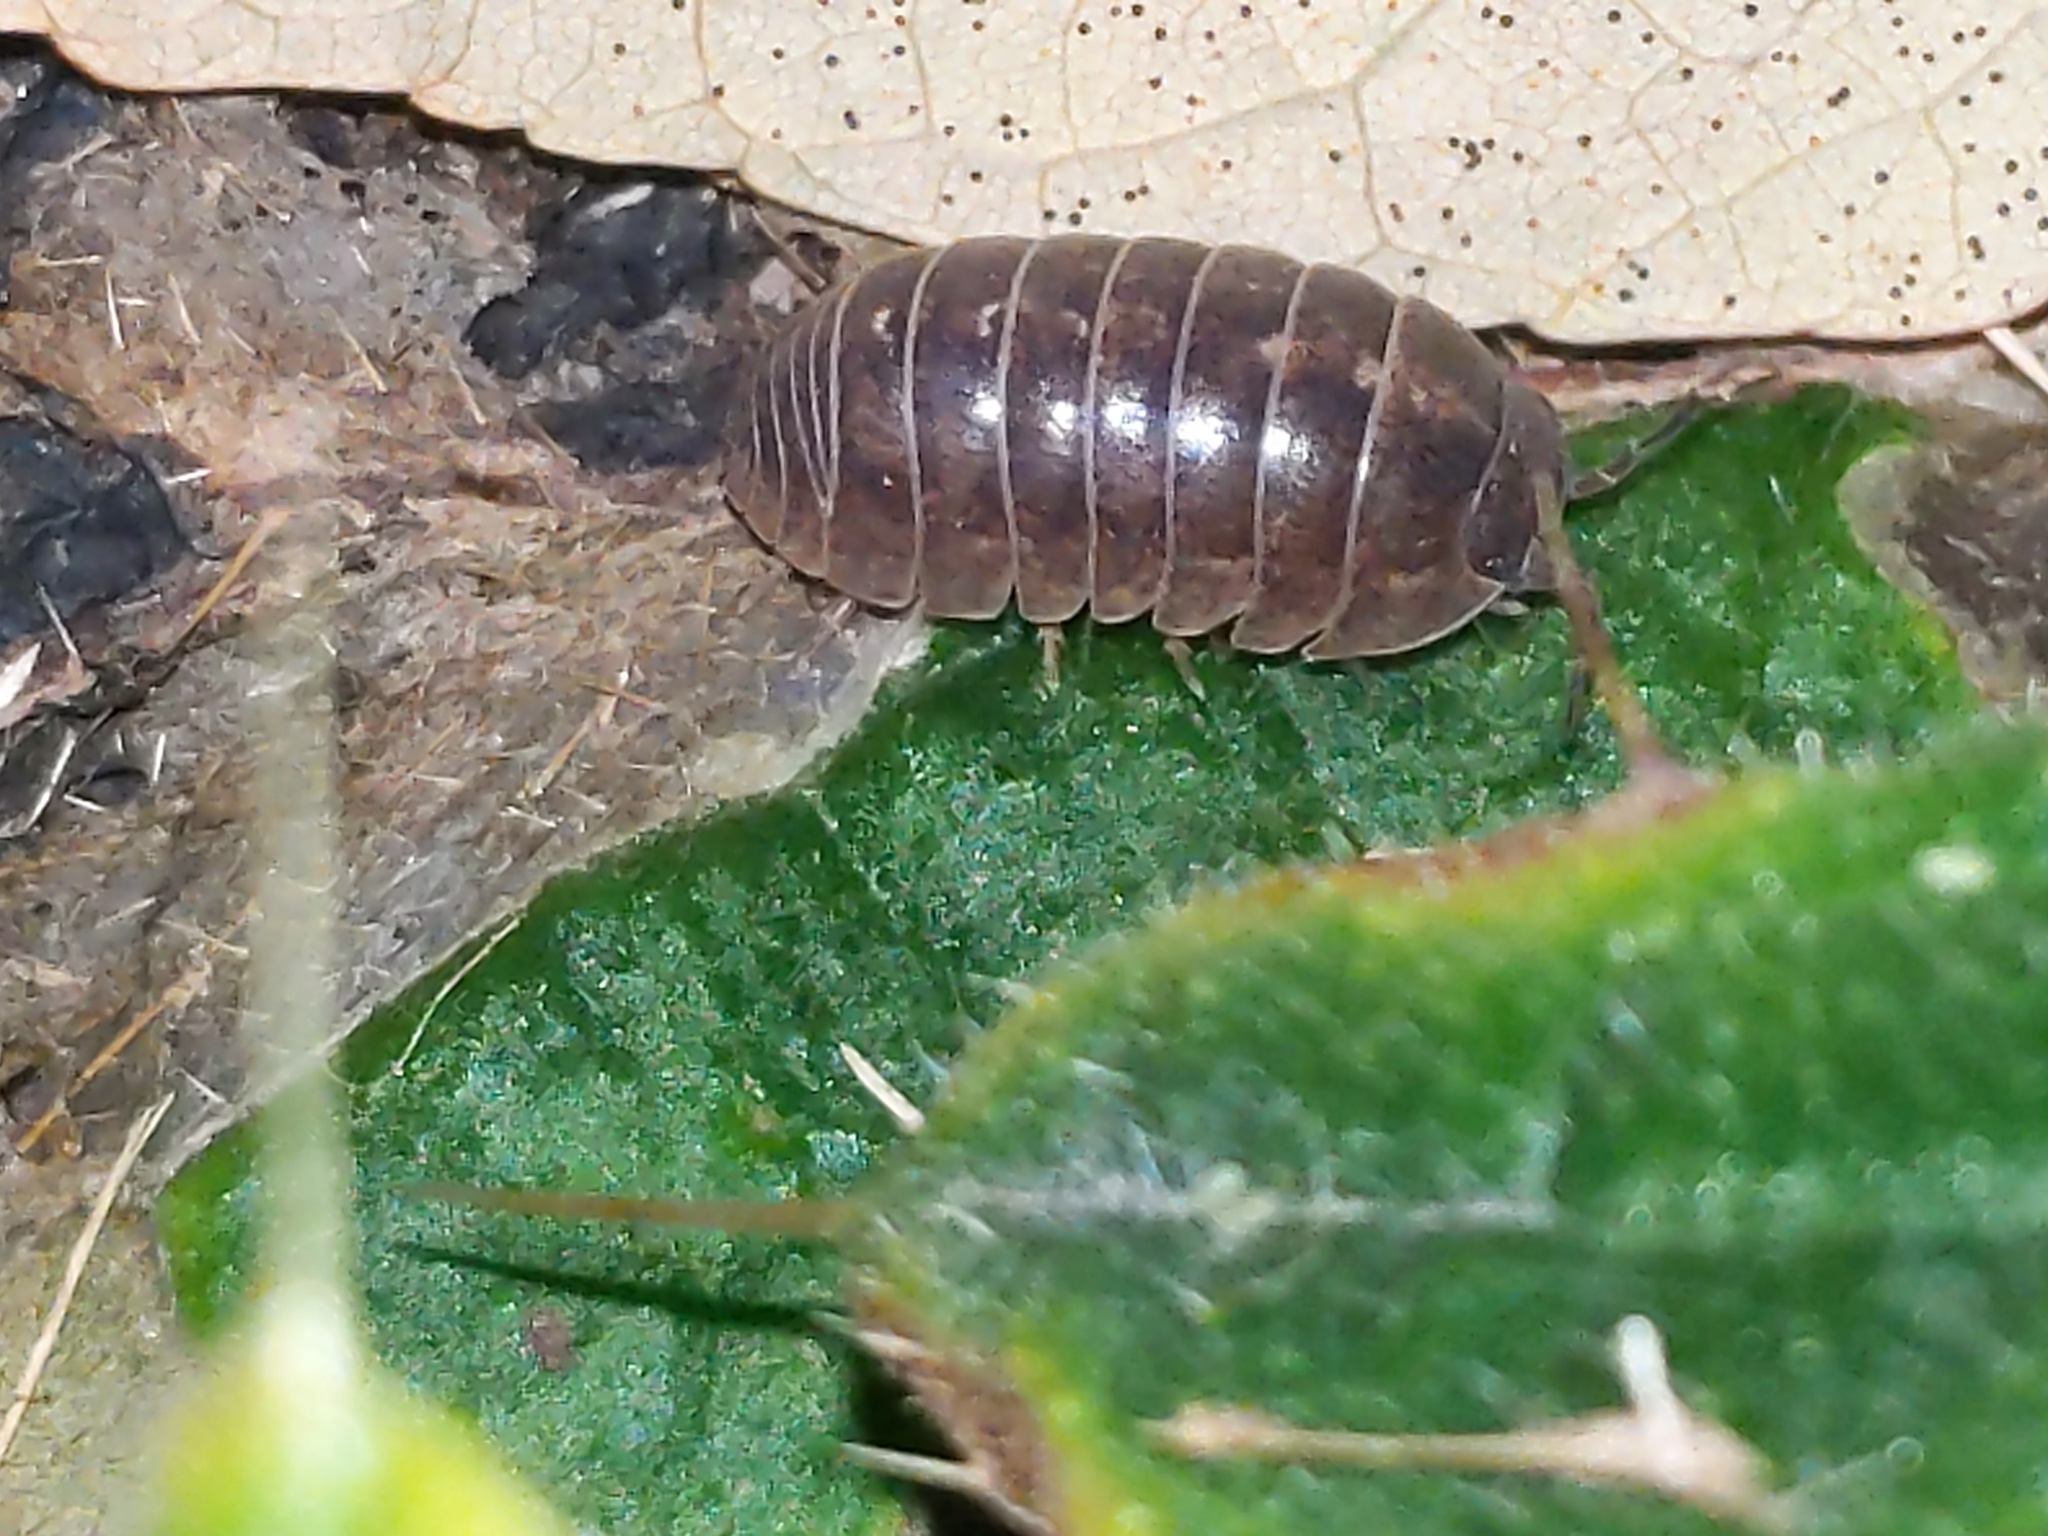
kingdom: Animalia
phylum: Arthropoda
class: Malacostraca
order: Isopoda
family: Armadillidiidae
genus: Armadillidium
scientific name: Armadillidium vulgare
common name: Common pill woodlouse
